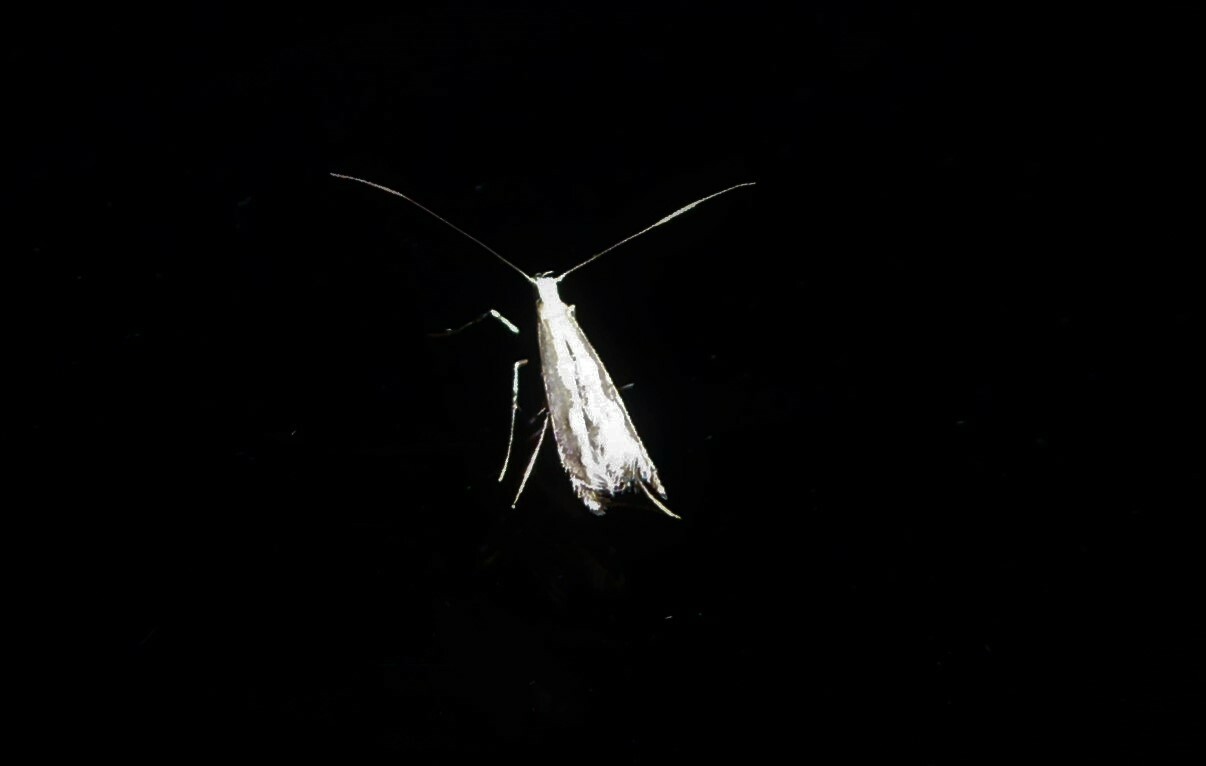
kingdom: Animalia
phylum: Arthropoda
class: Insecta
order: Lepidoptera
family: Gracillariidae
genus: Dialectica
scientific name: Dialectica scalariella
